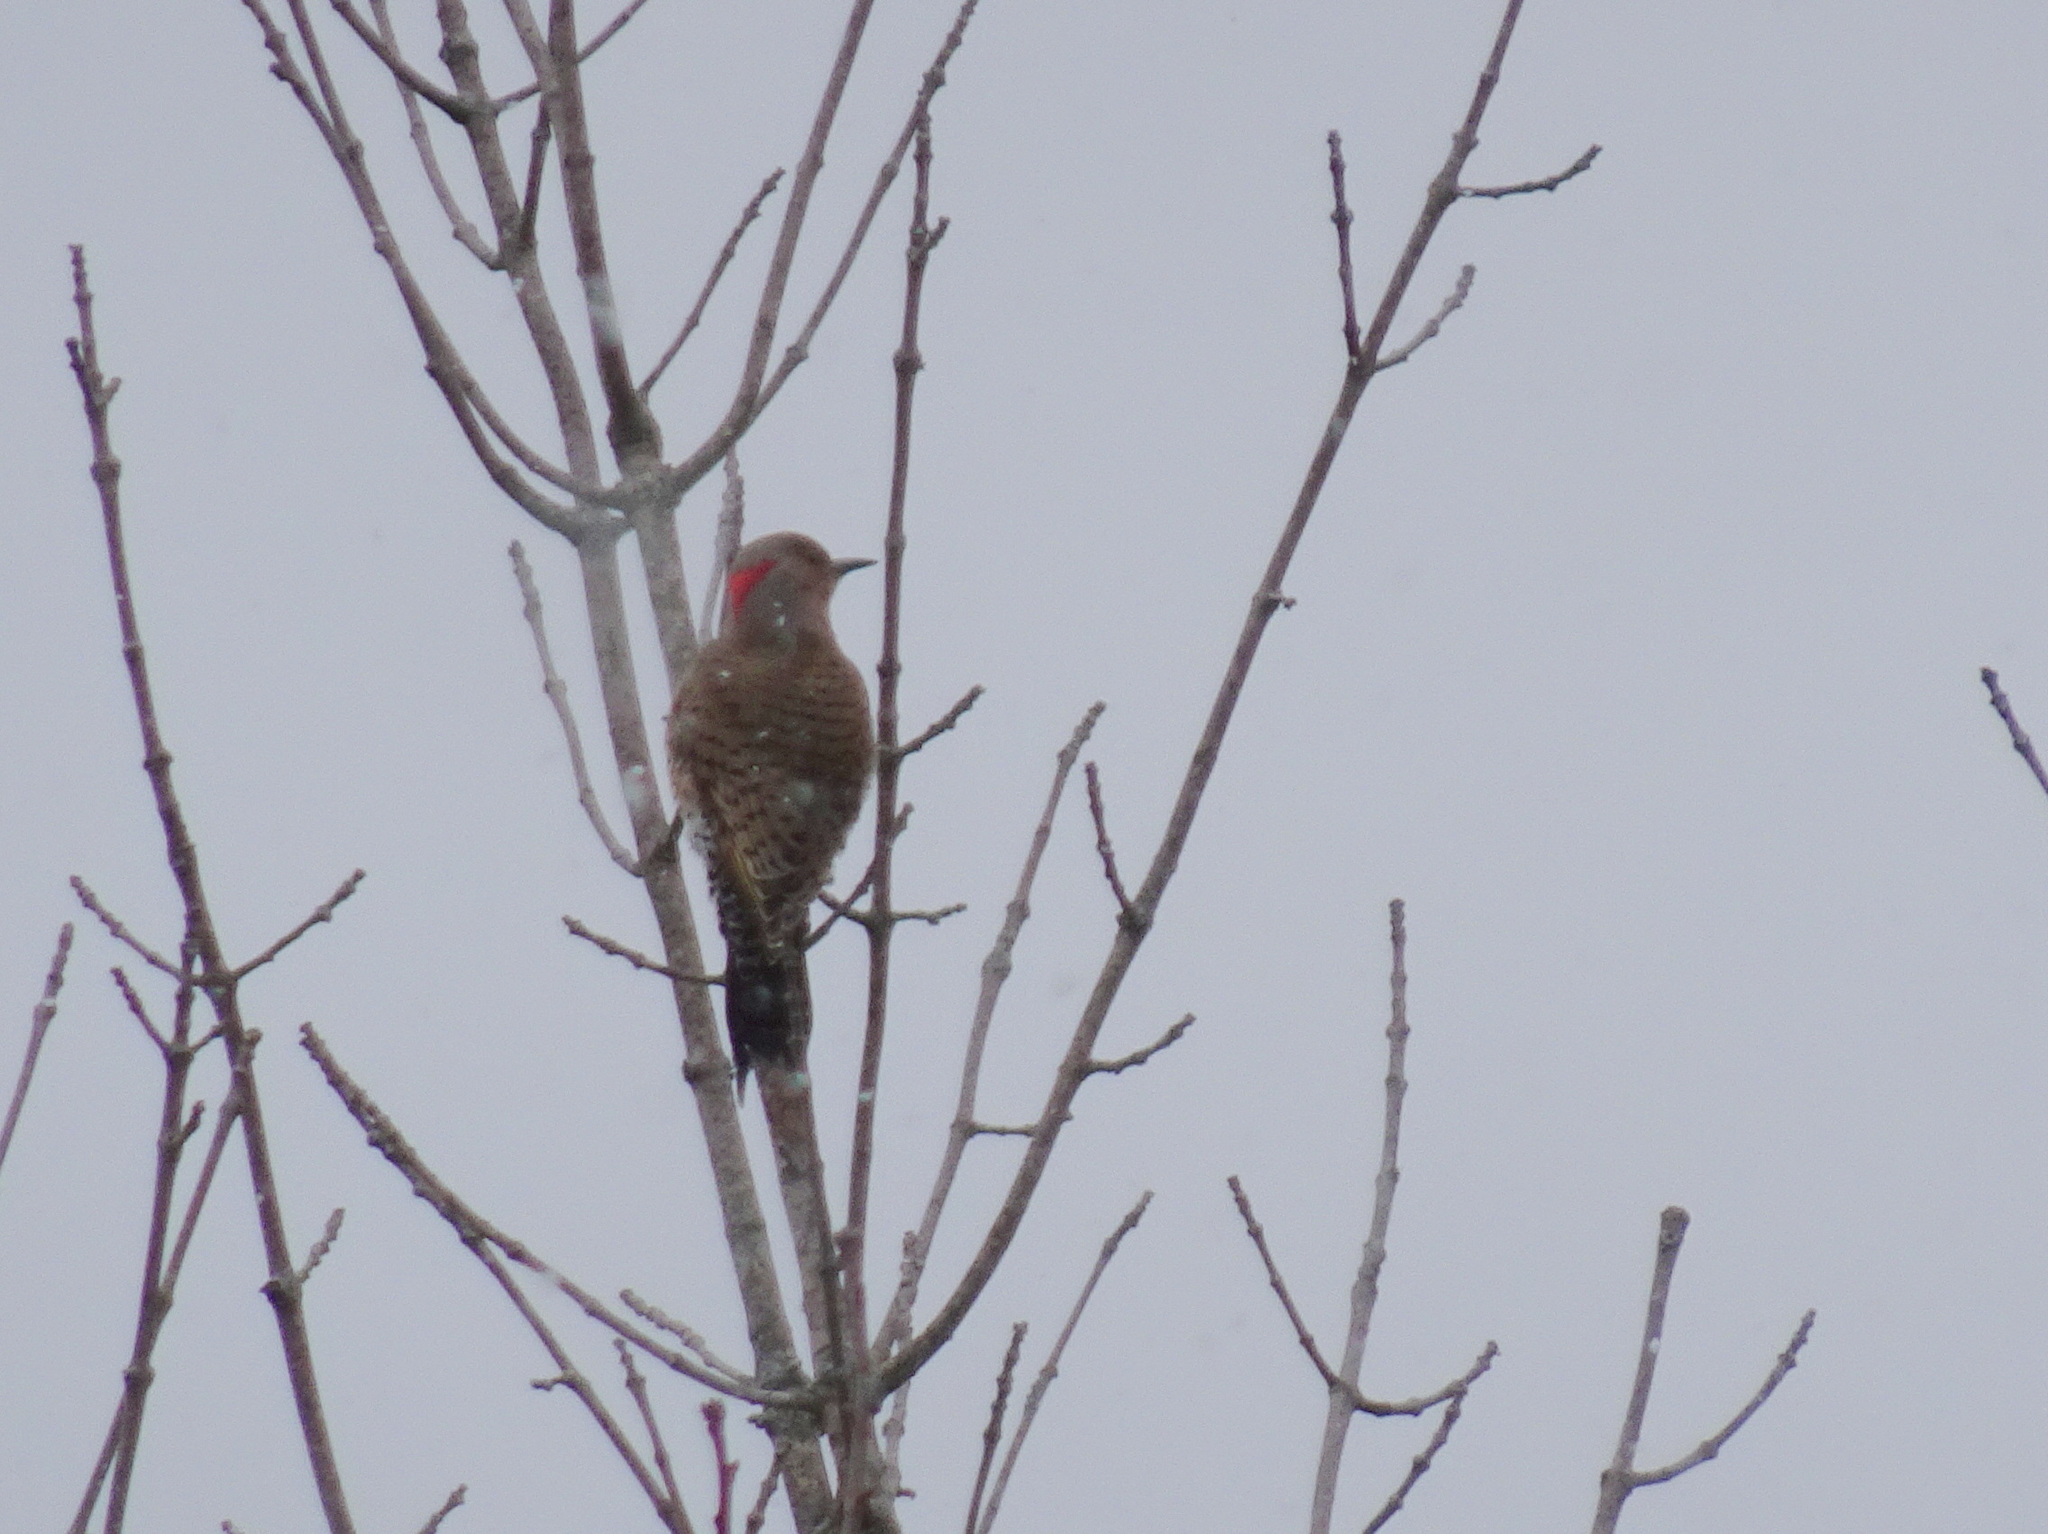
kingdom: Animalia
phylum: Chordata
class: Aves
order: Piciformes
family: Picidae
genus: Colaptes
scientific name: Colaptes auratus
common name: Northern flicker
